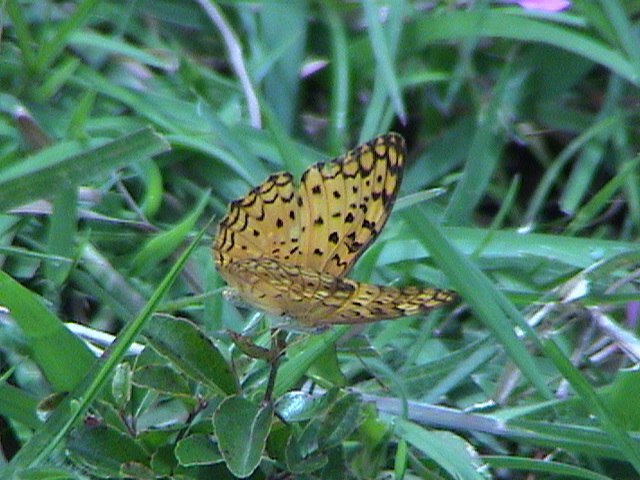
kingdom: Animalia
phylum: Arthropoda
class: Insecta
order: Lepidoptera
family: Nymphalidae
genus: Phalanta
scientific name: Phalanta phalantha
